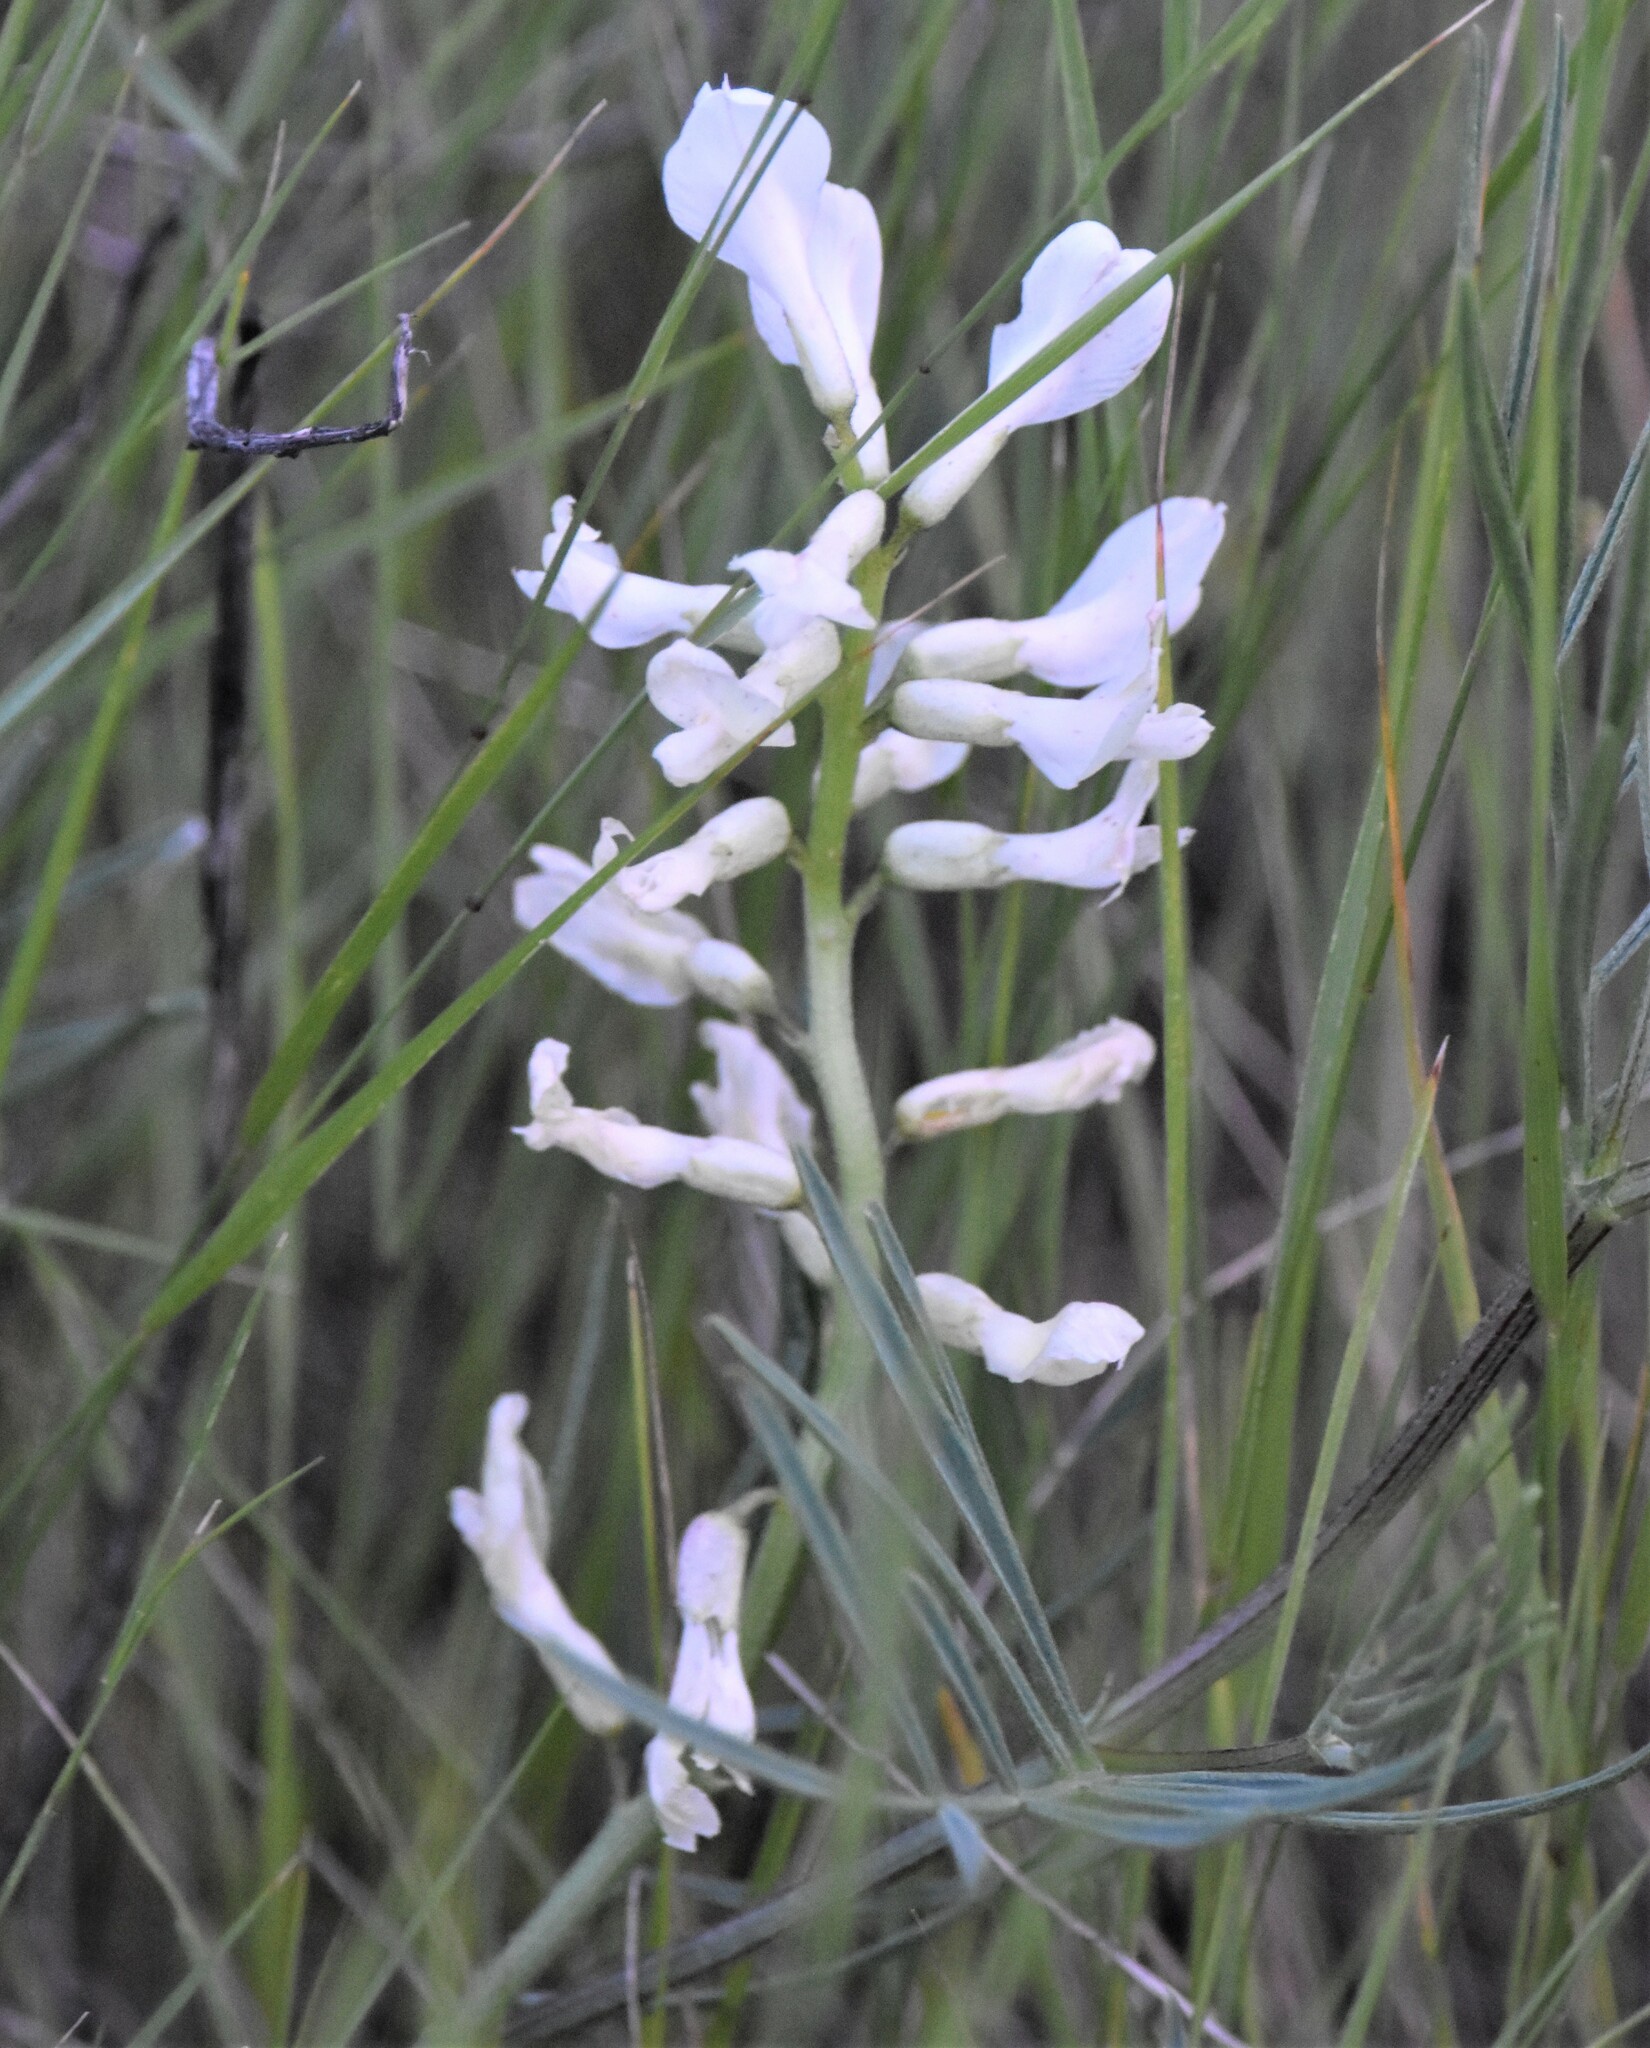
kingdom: Plantae
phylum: Tracheophyta
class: Magnoliopsida
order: Fabales
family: Fabaceae
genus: Astragalus
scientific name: Astragalus pectinatus
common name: Tine-leaf milk-vetch
